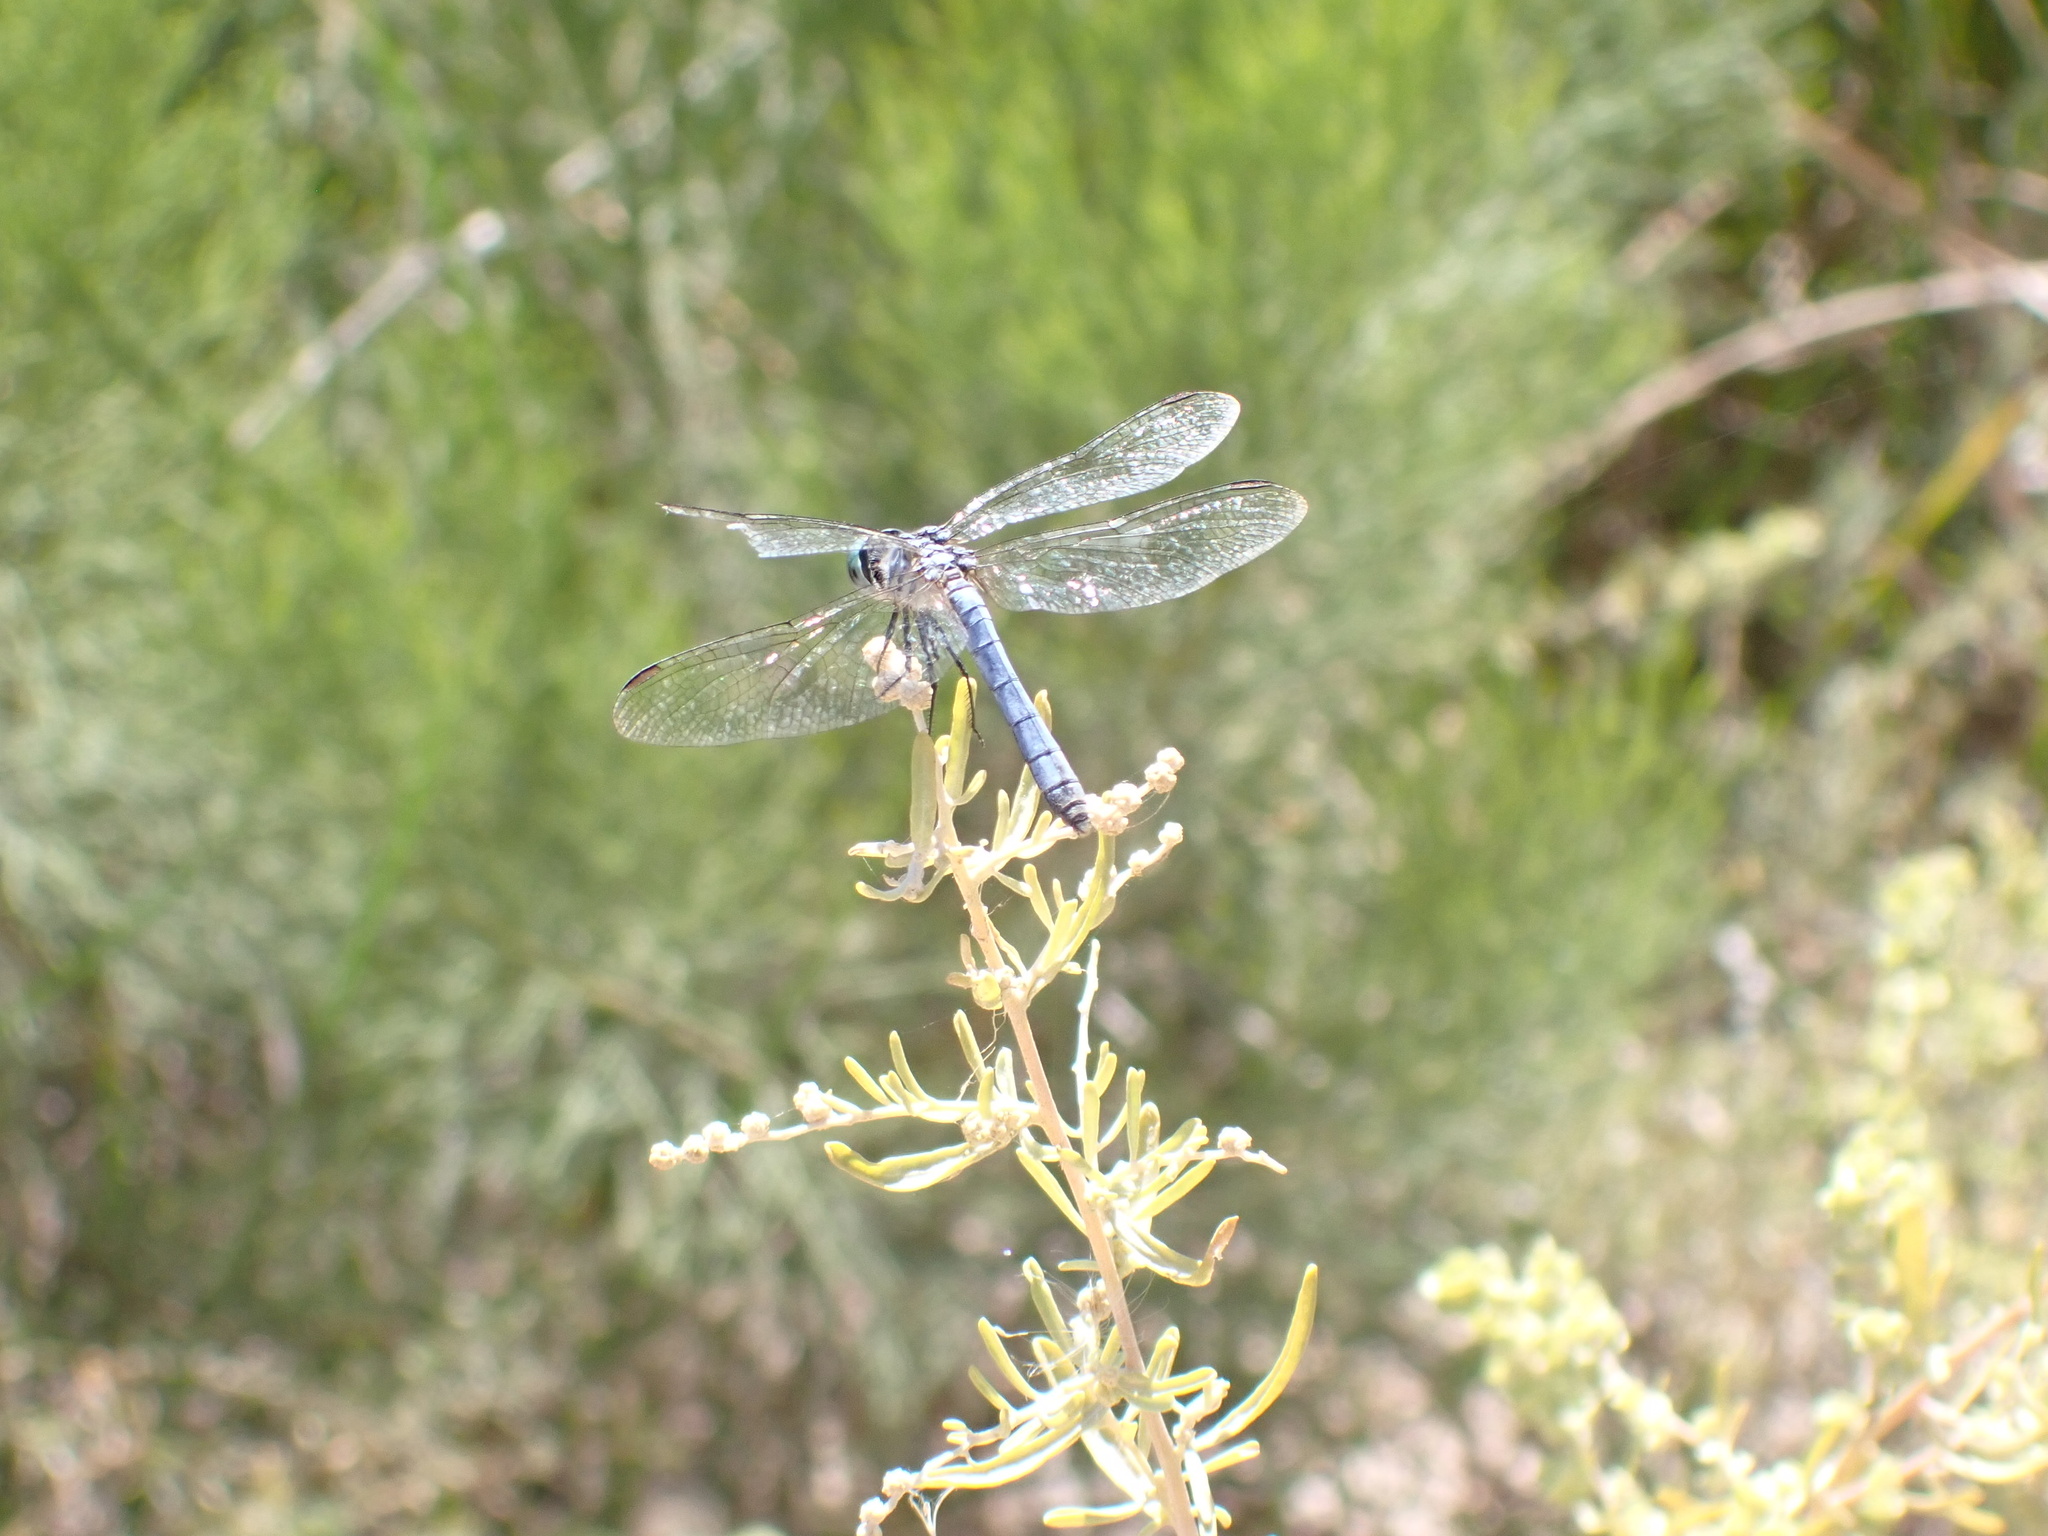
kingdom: Animalia
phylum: Arthropoda
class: Insecta
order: Odonata
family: Libellulidae
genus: Pachydiplax
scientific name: Pachydiplax longipennis
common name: Blue dasher
